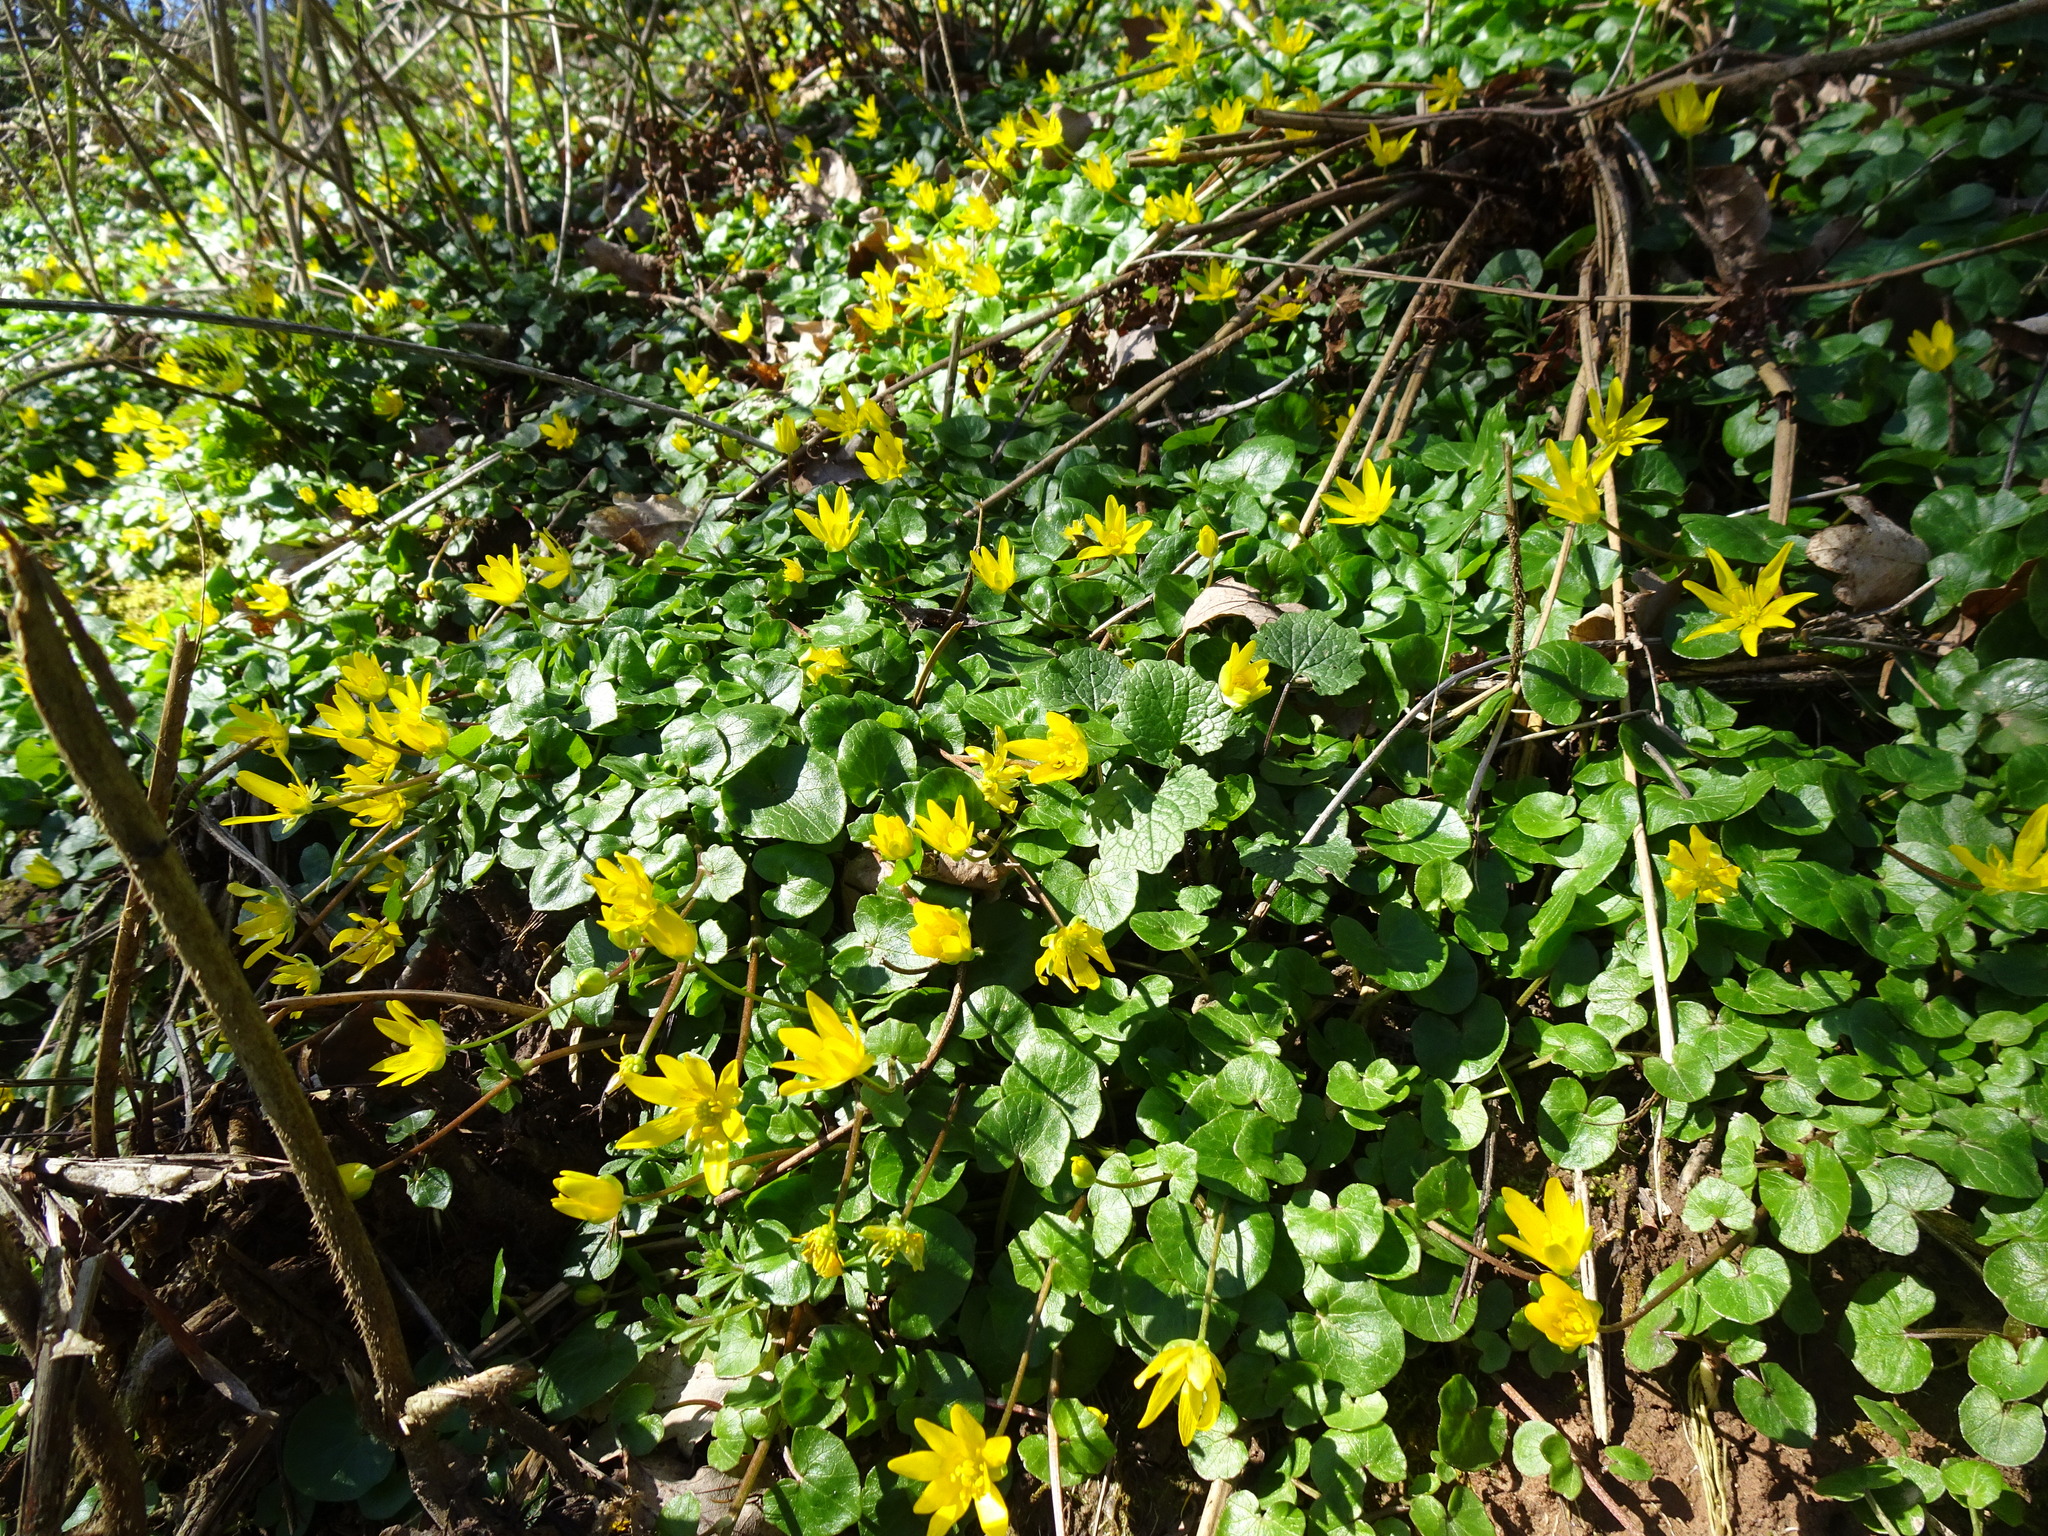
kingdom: Plantae
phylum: Tracheophyta
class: Magnoliopsida
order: Ranunculales
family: Ranunculaceae
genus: Ficaria
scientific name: Ficaria verna
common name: Lesser celandine
